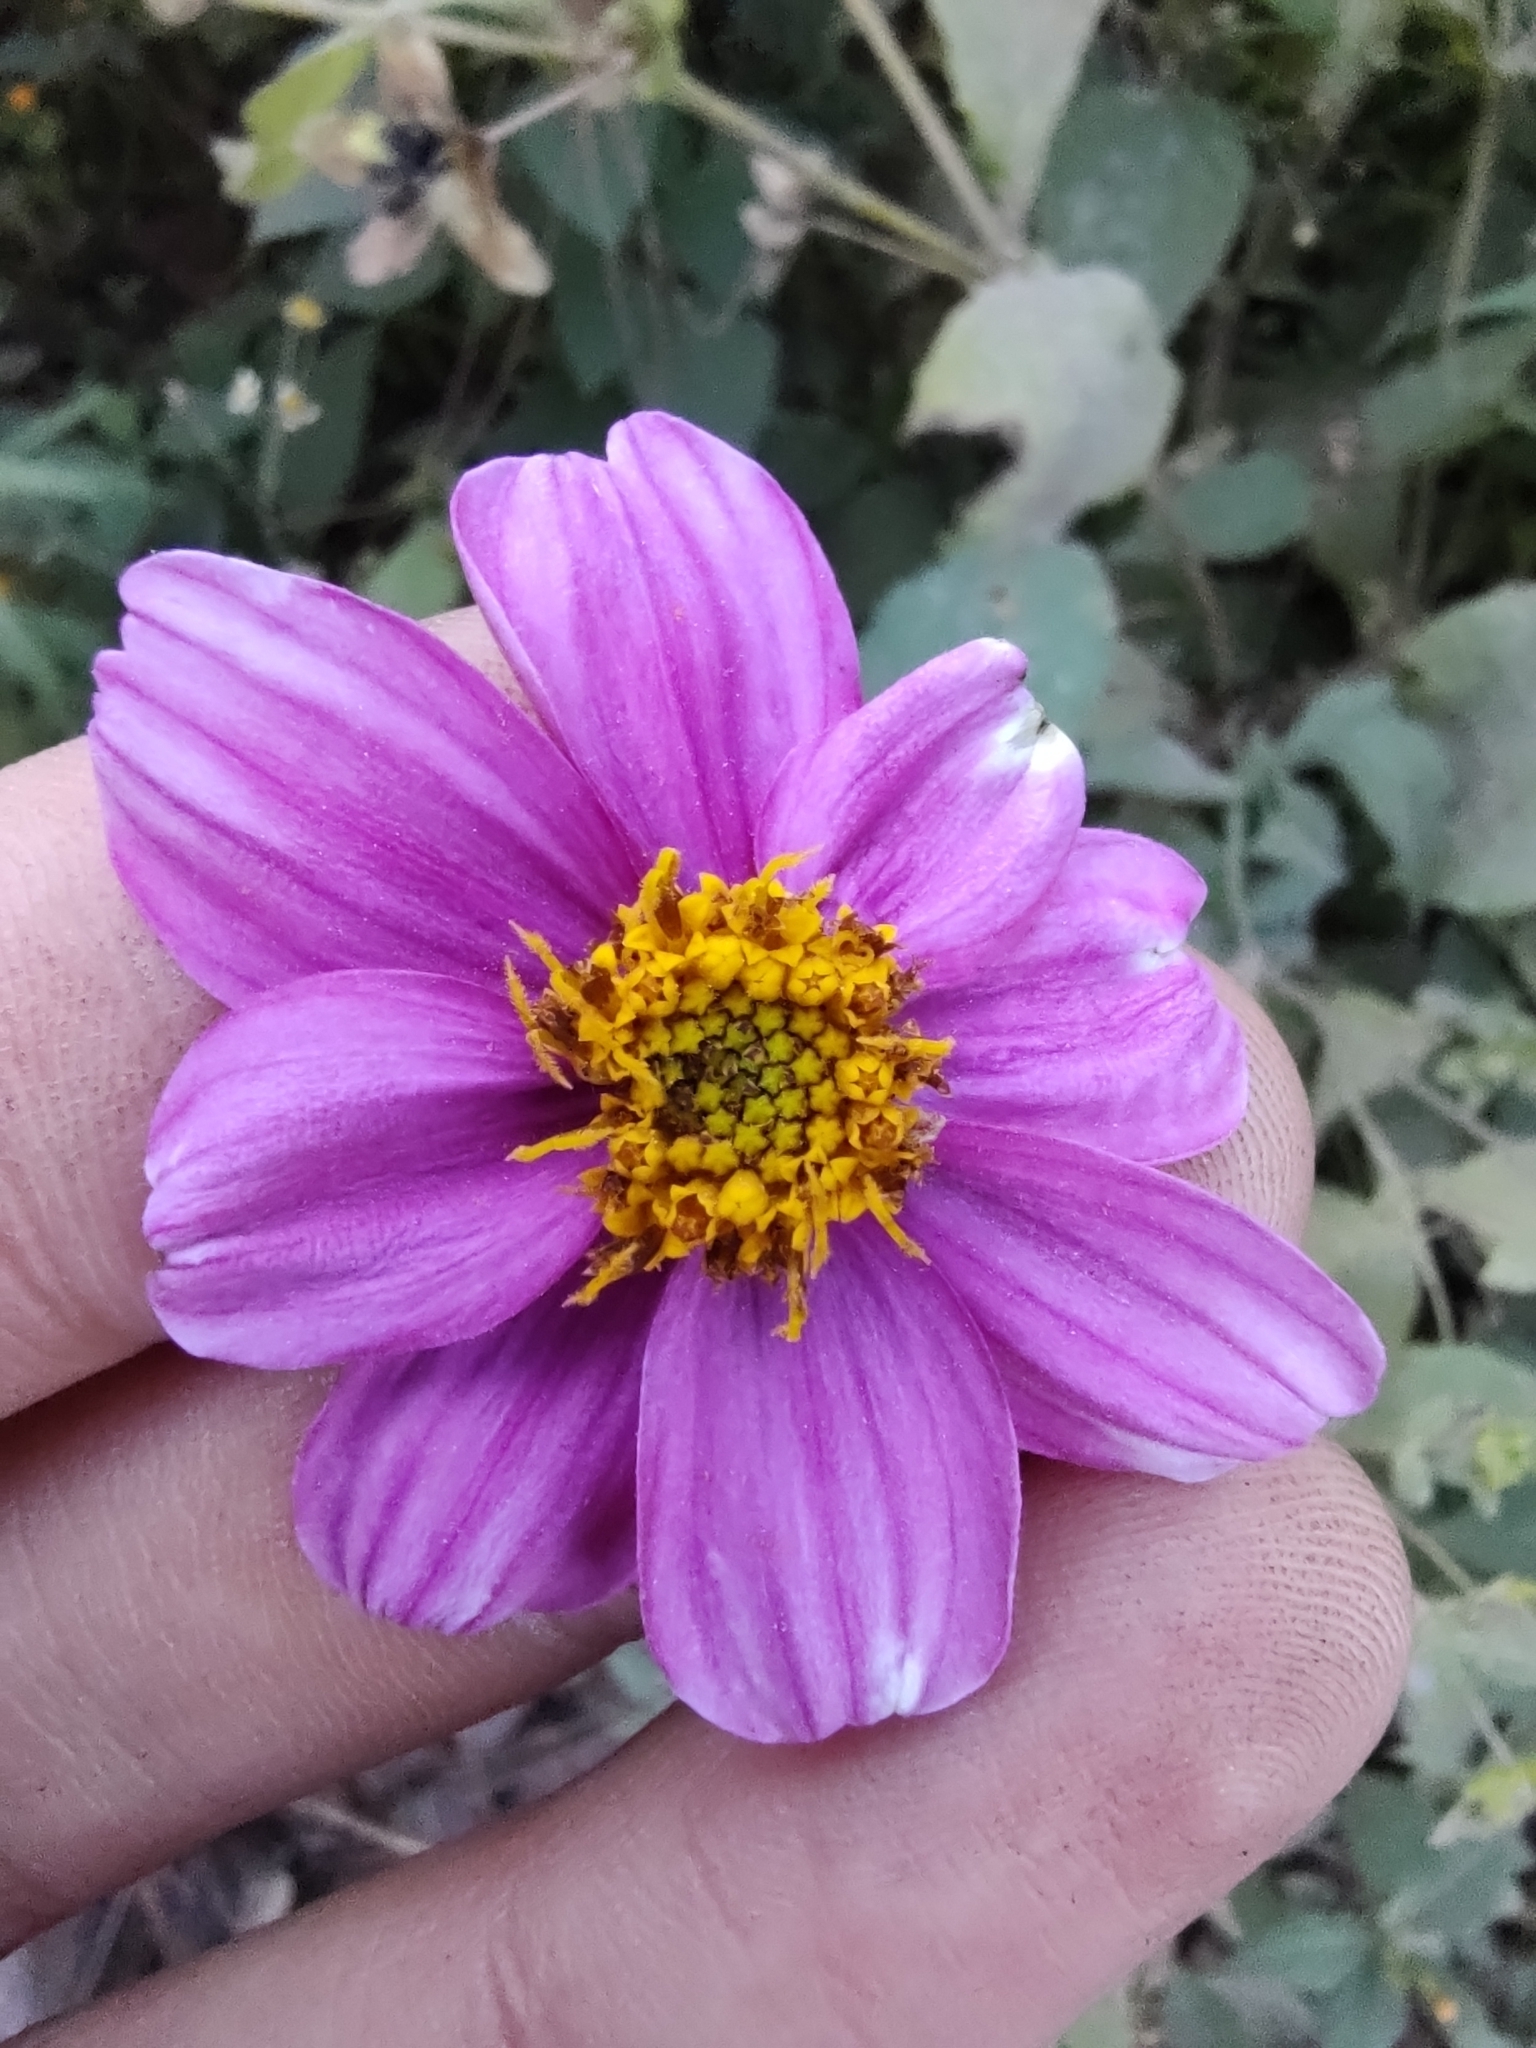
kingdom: Plantae
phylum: Tracheophyta
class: Magnoliopsida
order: Asterales
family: Asteraceae
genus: Bidens
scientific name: Bidens aequisquama
